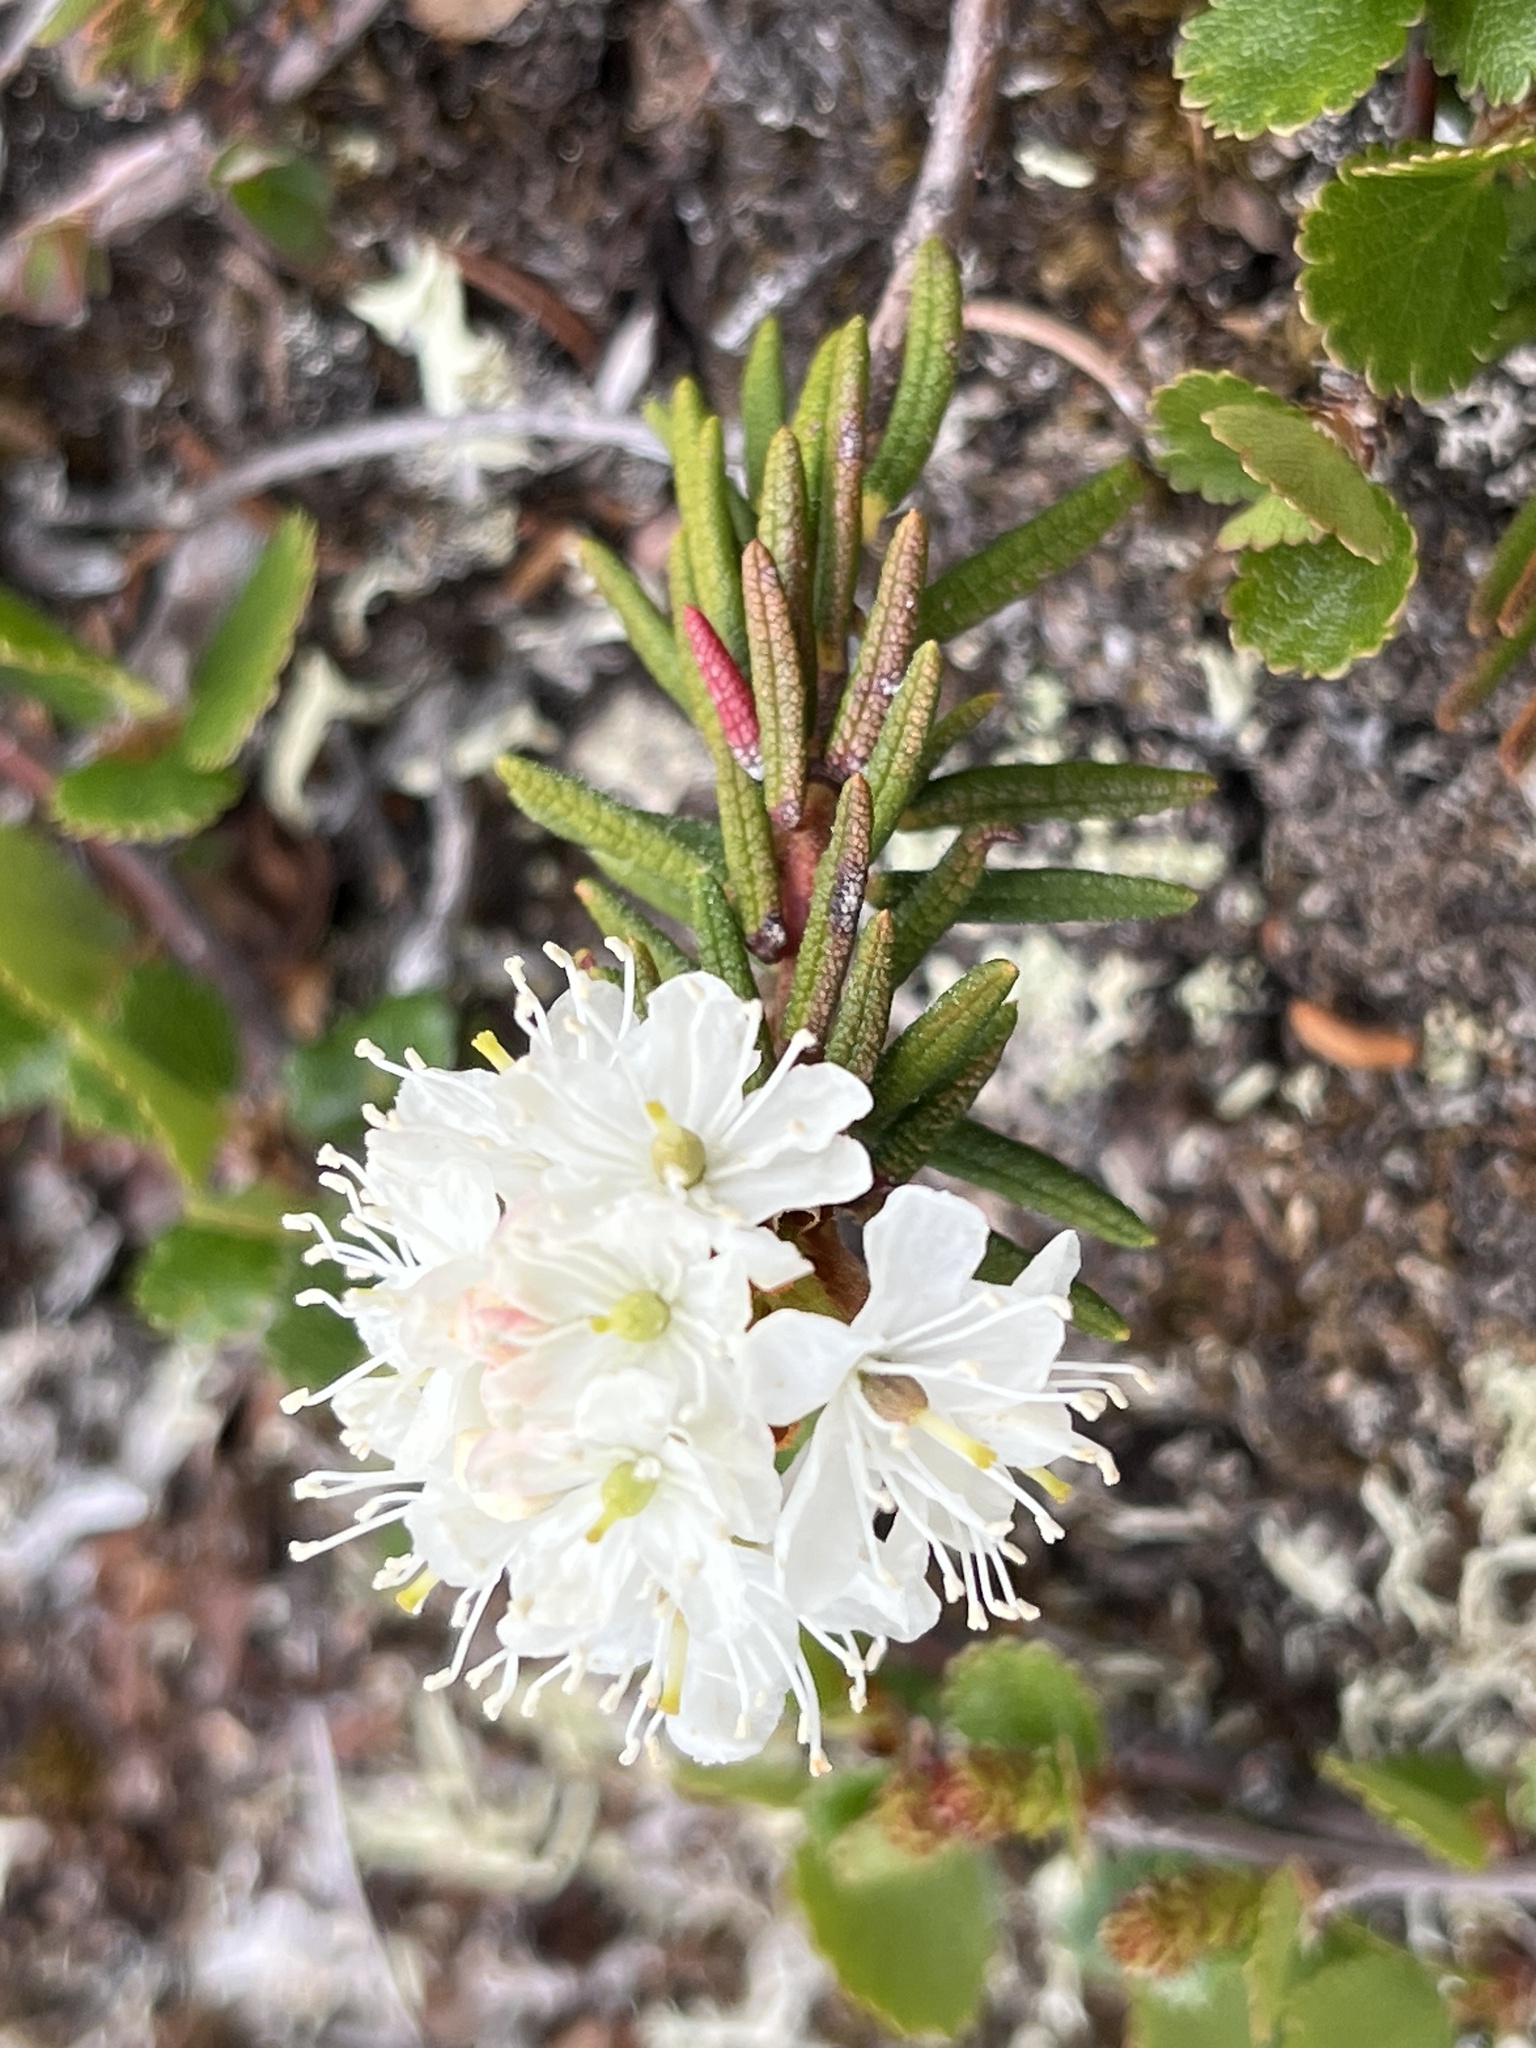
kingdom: Plantae
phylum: Tracheophyta
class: Magnoliopsida
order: Ericales
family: Ericaceae
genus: Rhododendron
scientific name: Rhododendron tomentosum
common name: Marsh labrador tea
